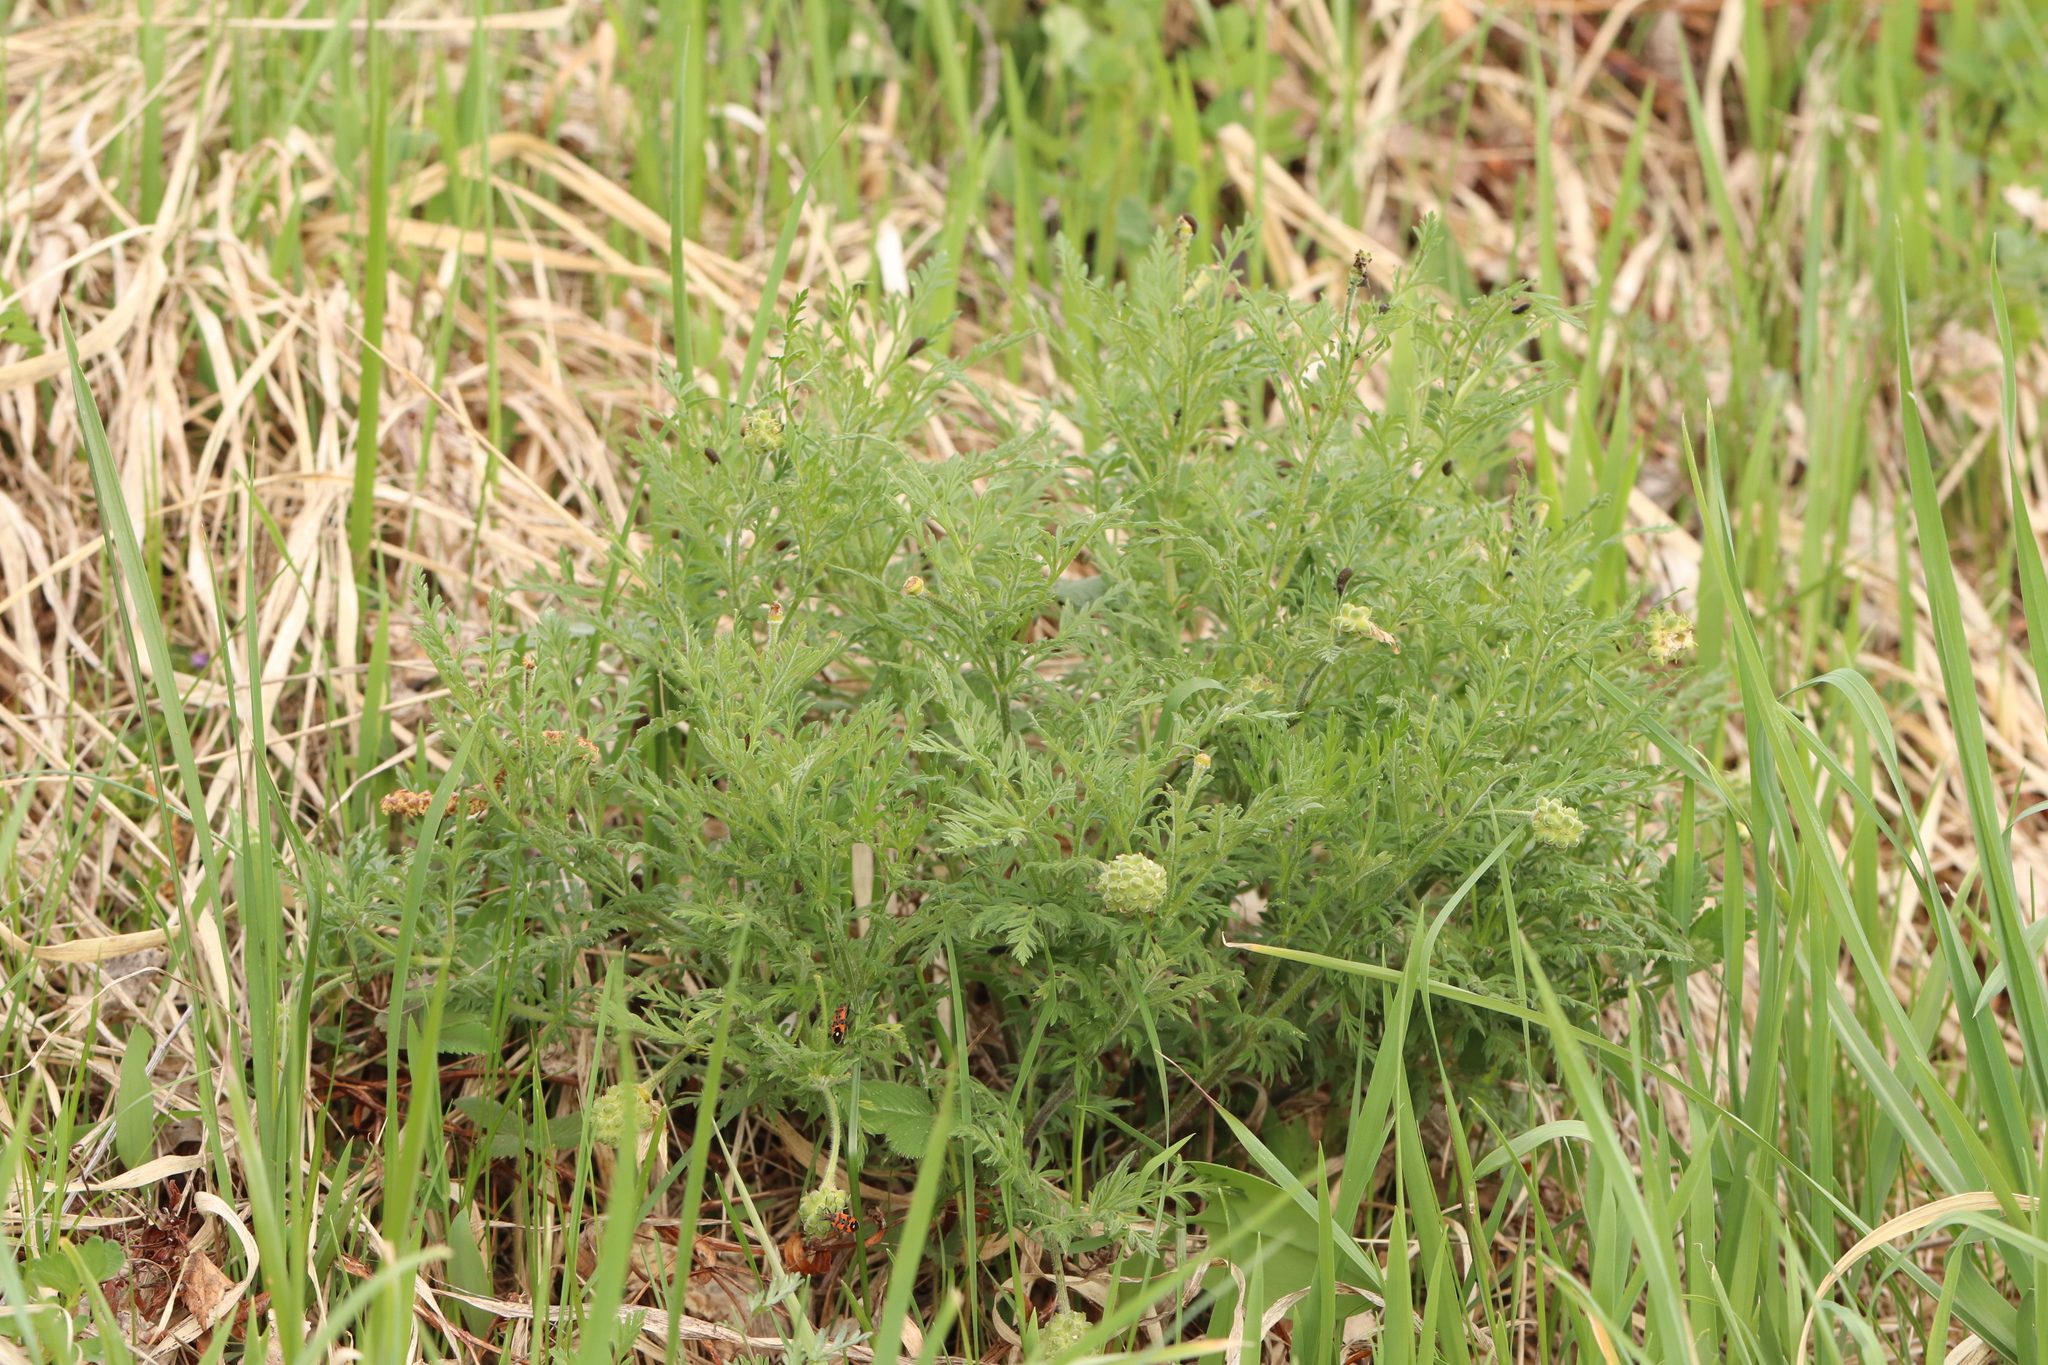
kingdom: Plantae
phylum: Tracheophyta
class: Magnoliopsida
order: Ranunculales
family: Ranunculaceae
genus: Adonis
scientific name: Adonis villosa
